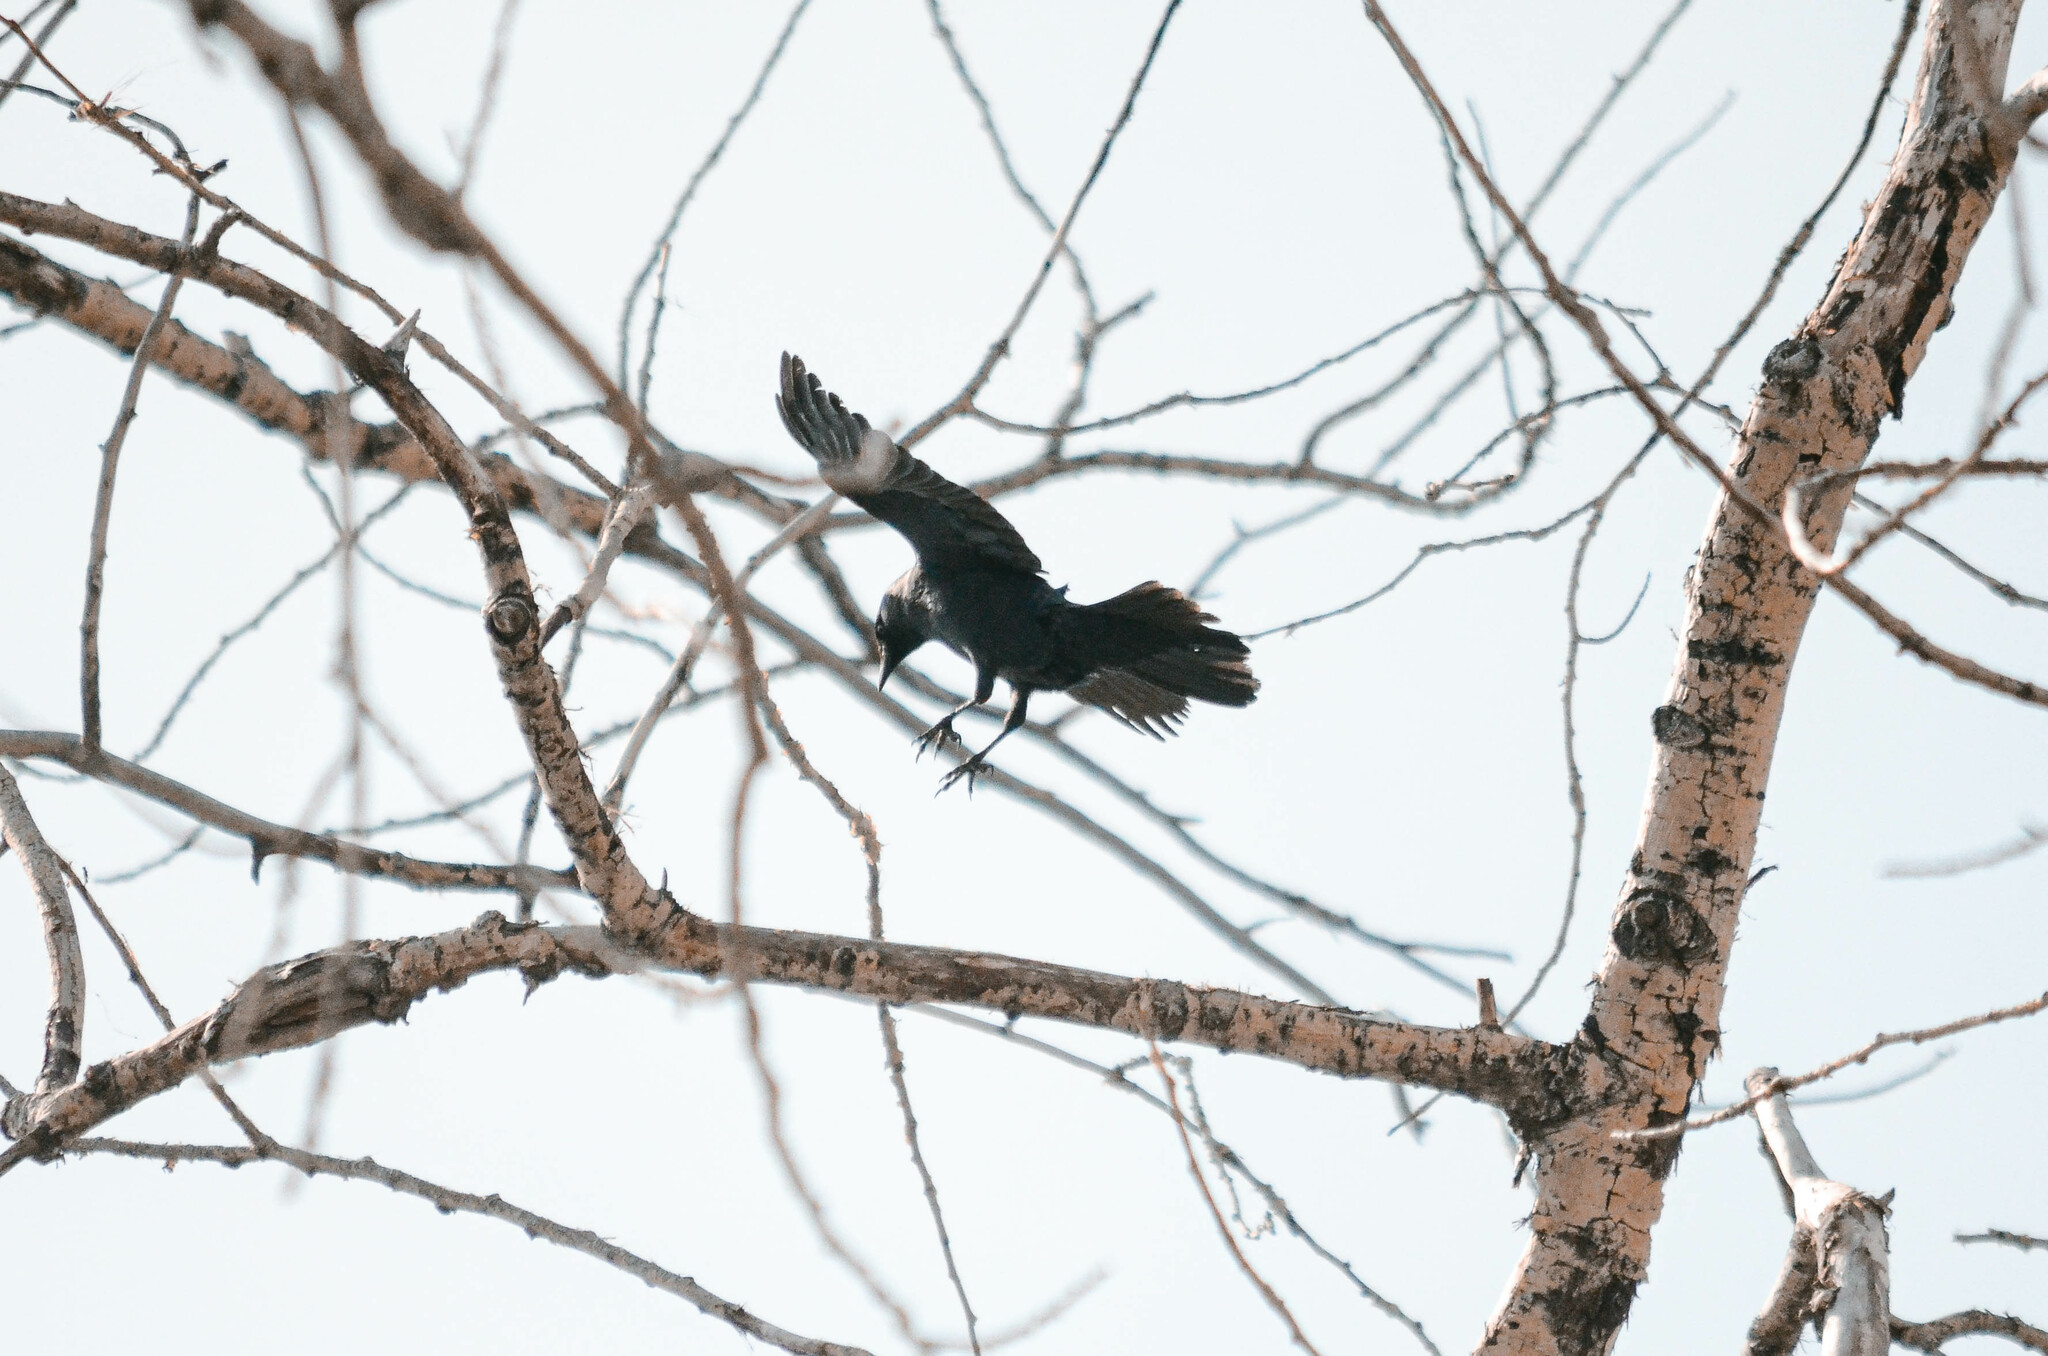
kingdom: Animalia
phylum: Chordata
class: Aves
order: Passeriformes
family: Corvidae
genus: Coloeus
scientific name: Coloeus monedula
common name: Western jackdaw
